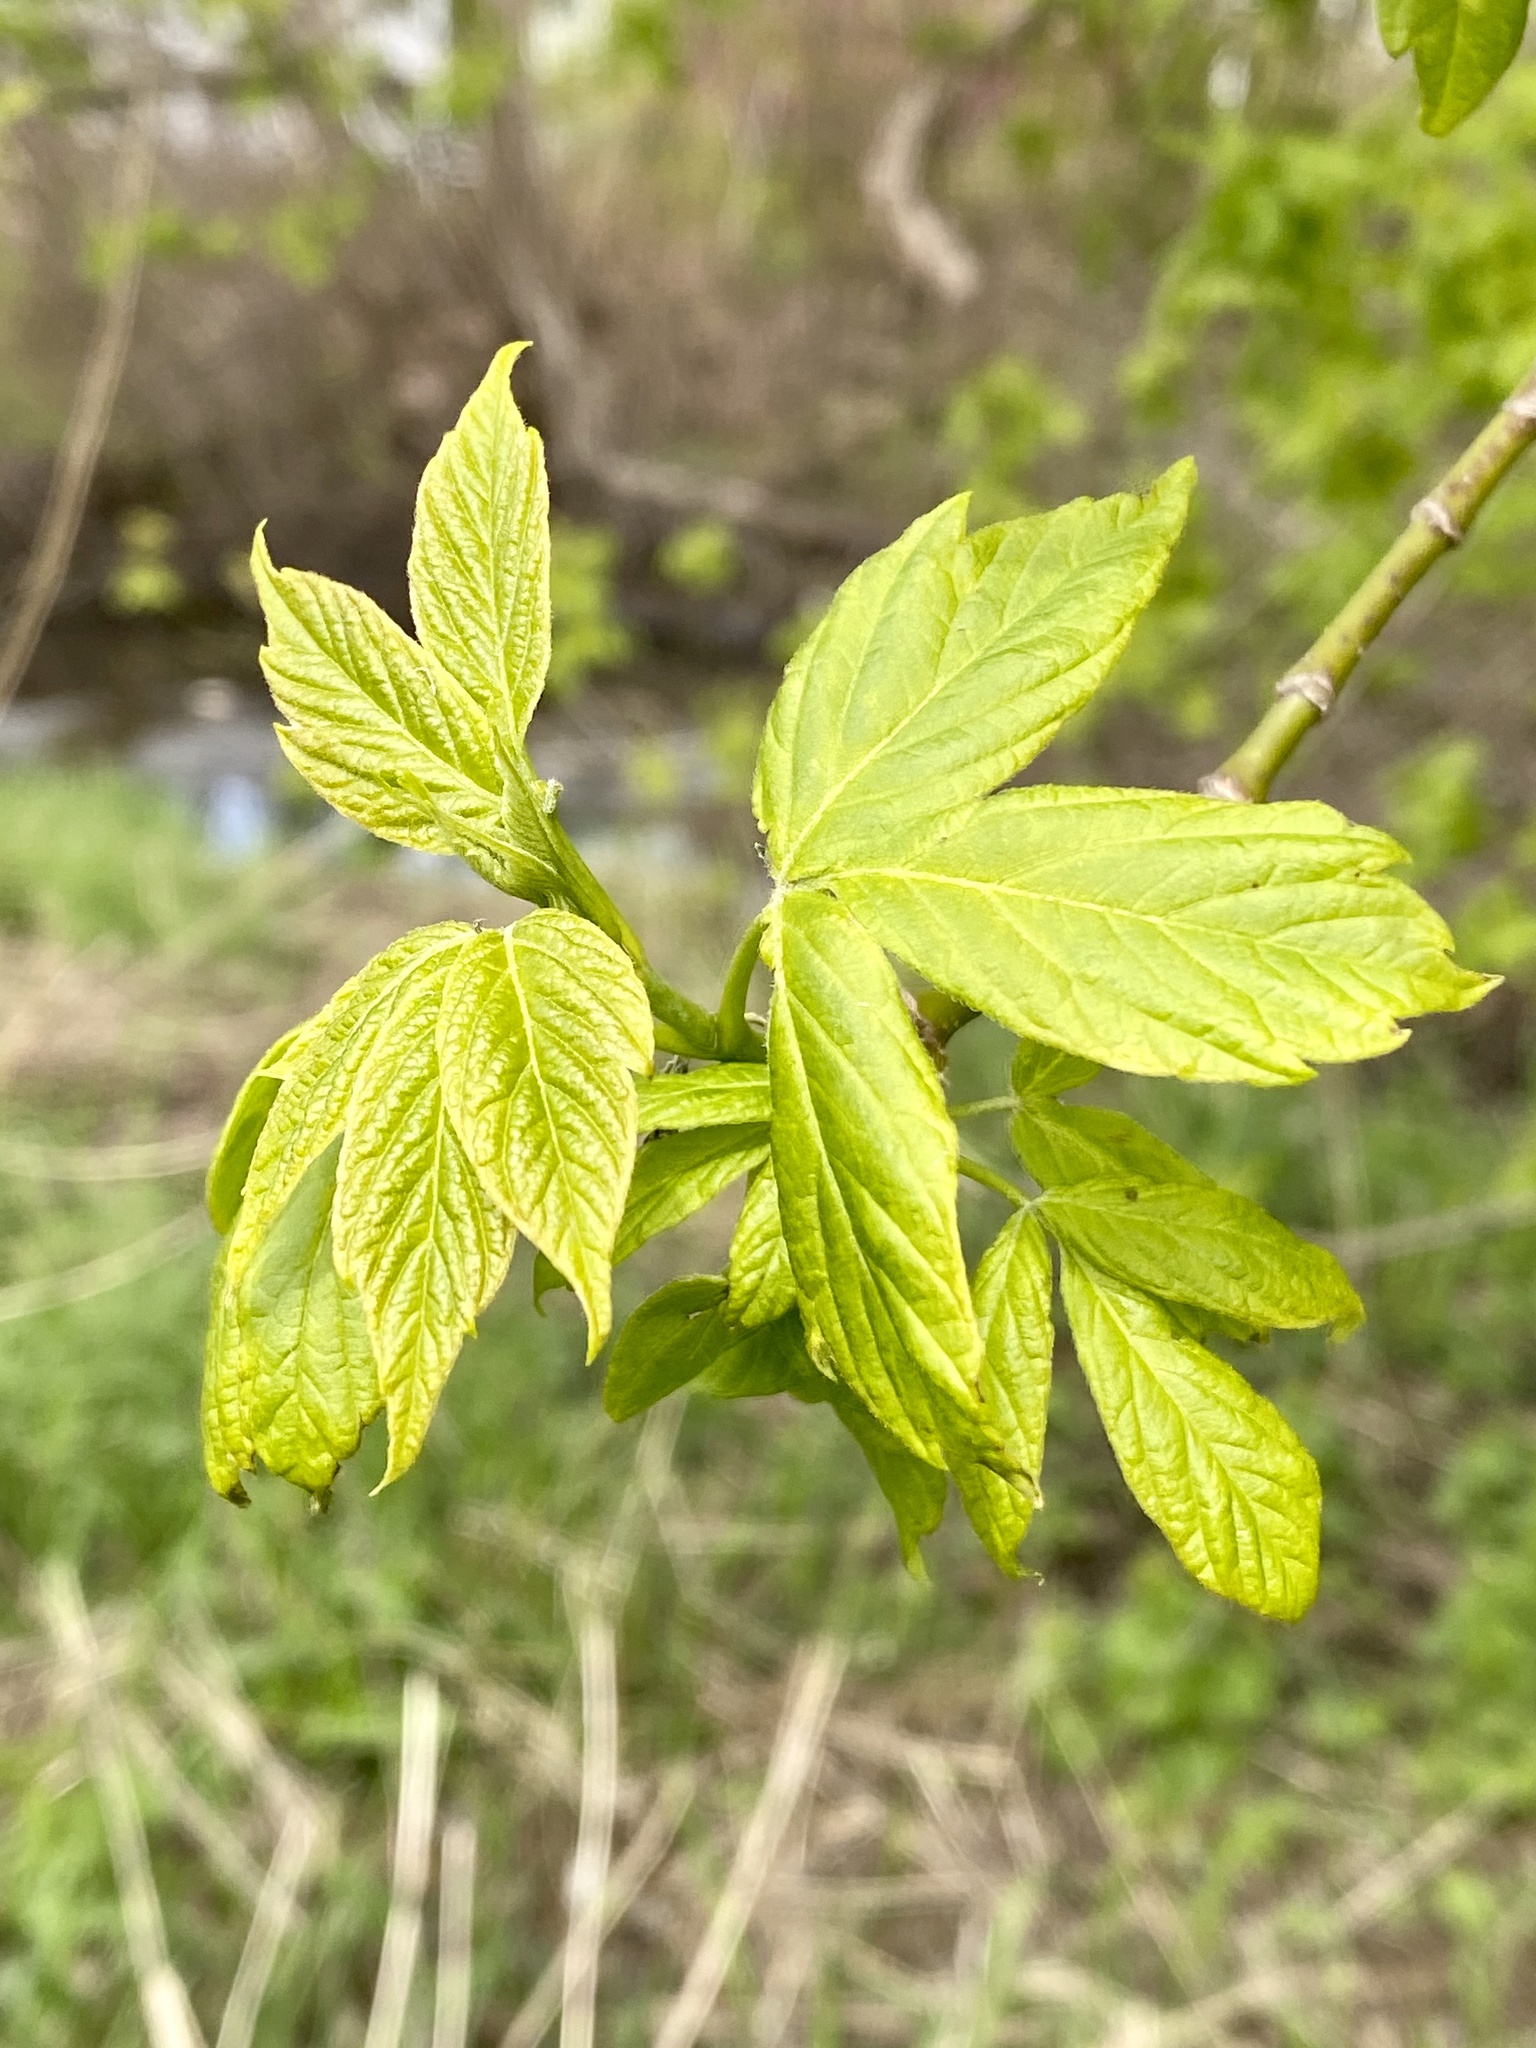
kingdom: Plantae
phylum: Tracheophyta
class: Magnoliopsida
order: Sapindales
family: Sapindaceae
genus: Acer
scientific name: Acer negundo
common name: Ashleaf maple
